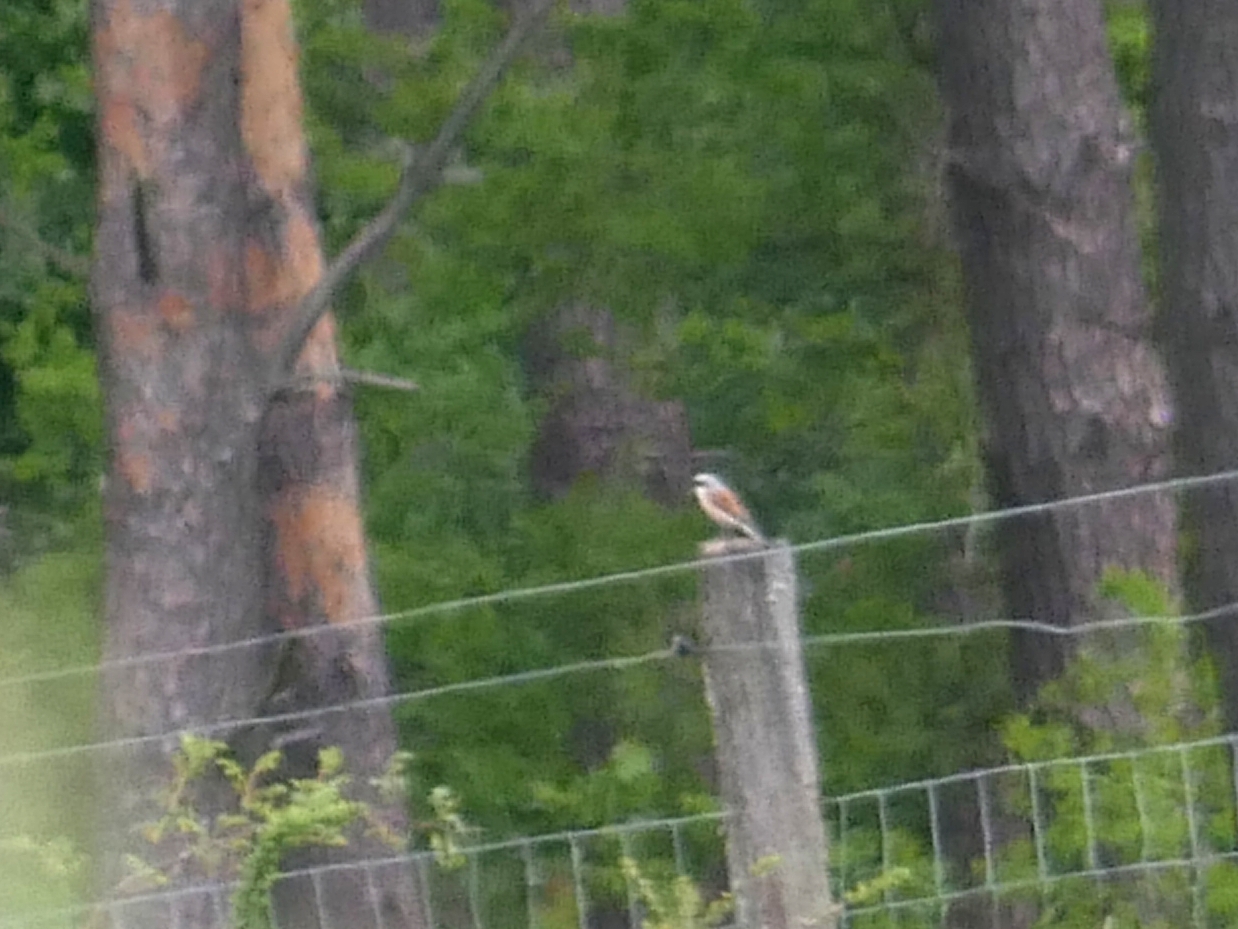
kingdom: Animalia
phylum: Chordata
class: Aves
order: Passeriformes
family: Laniidae
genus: Lanius
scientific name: Lanius collurio
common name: Red-backed shrike
